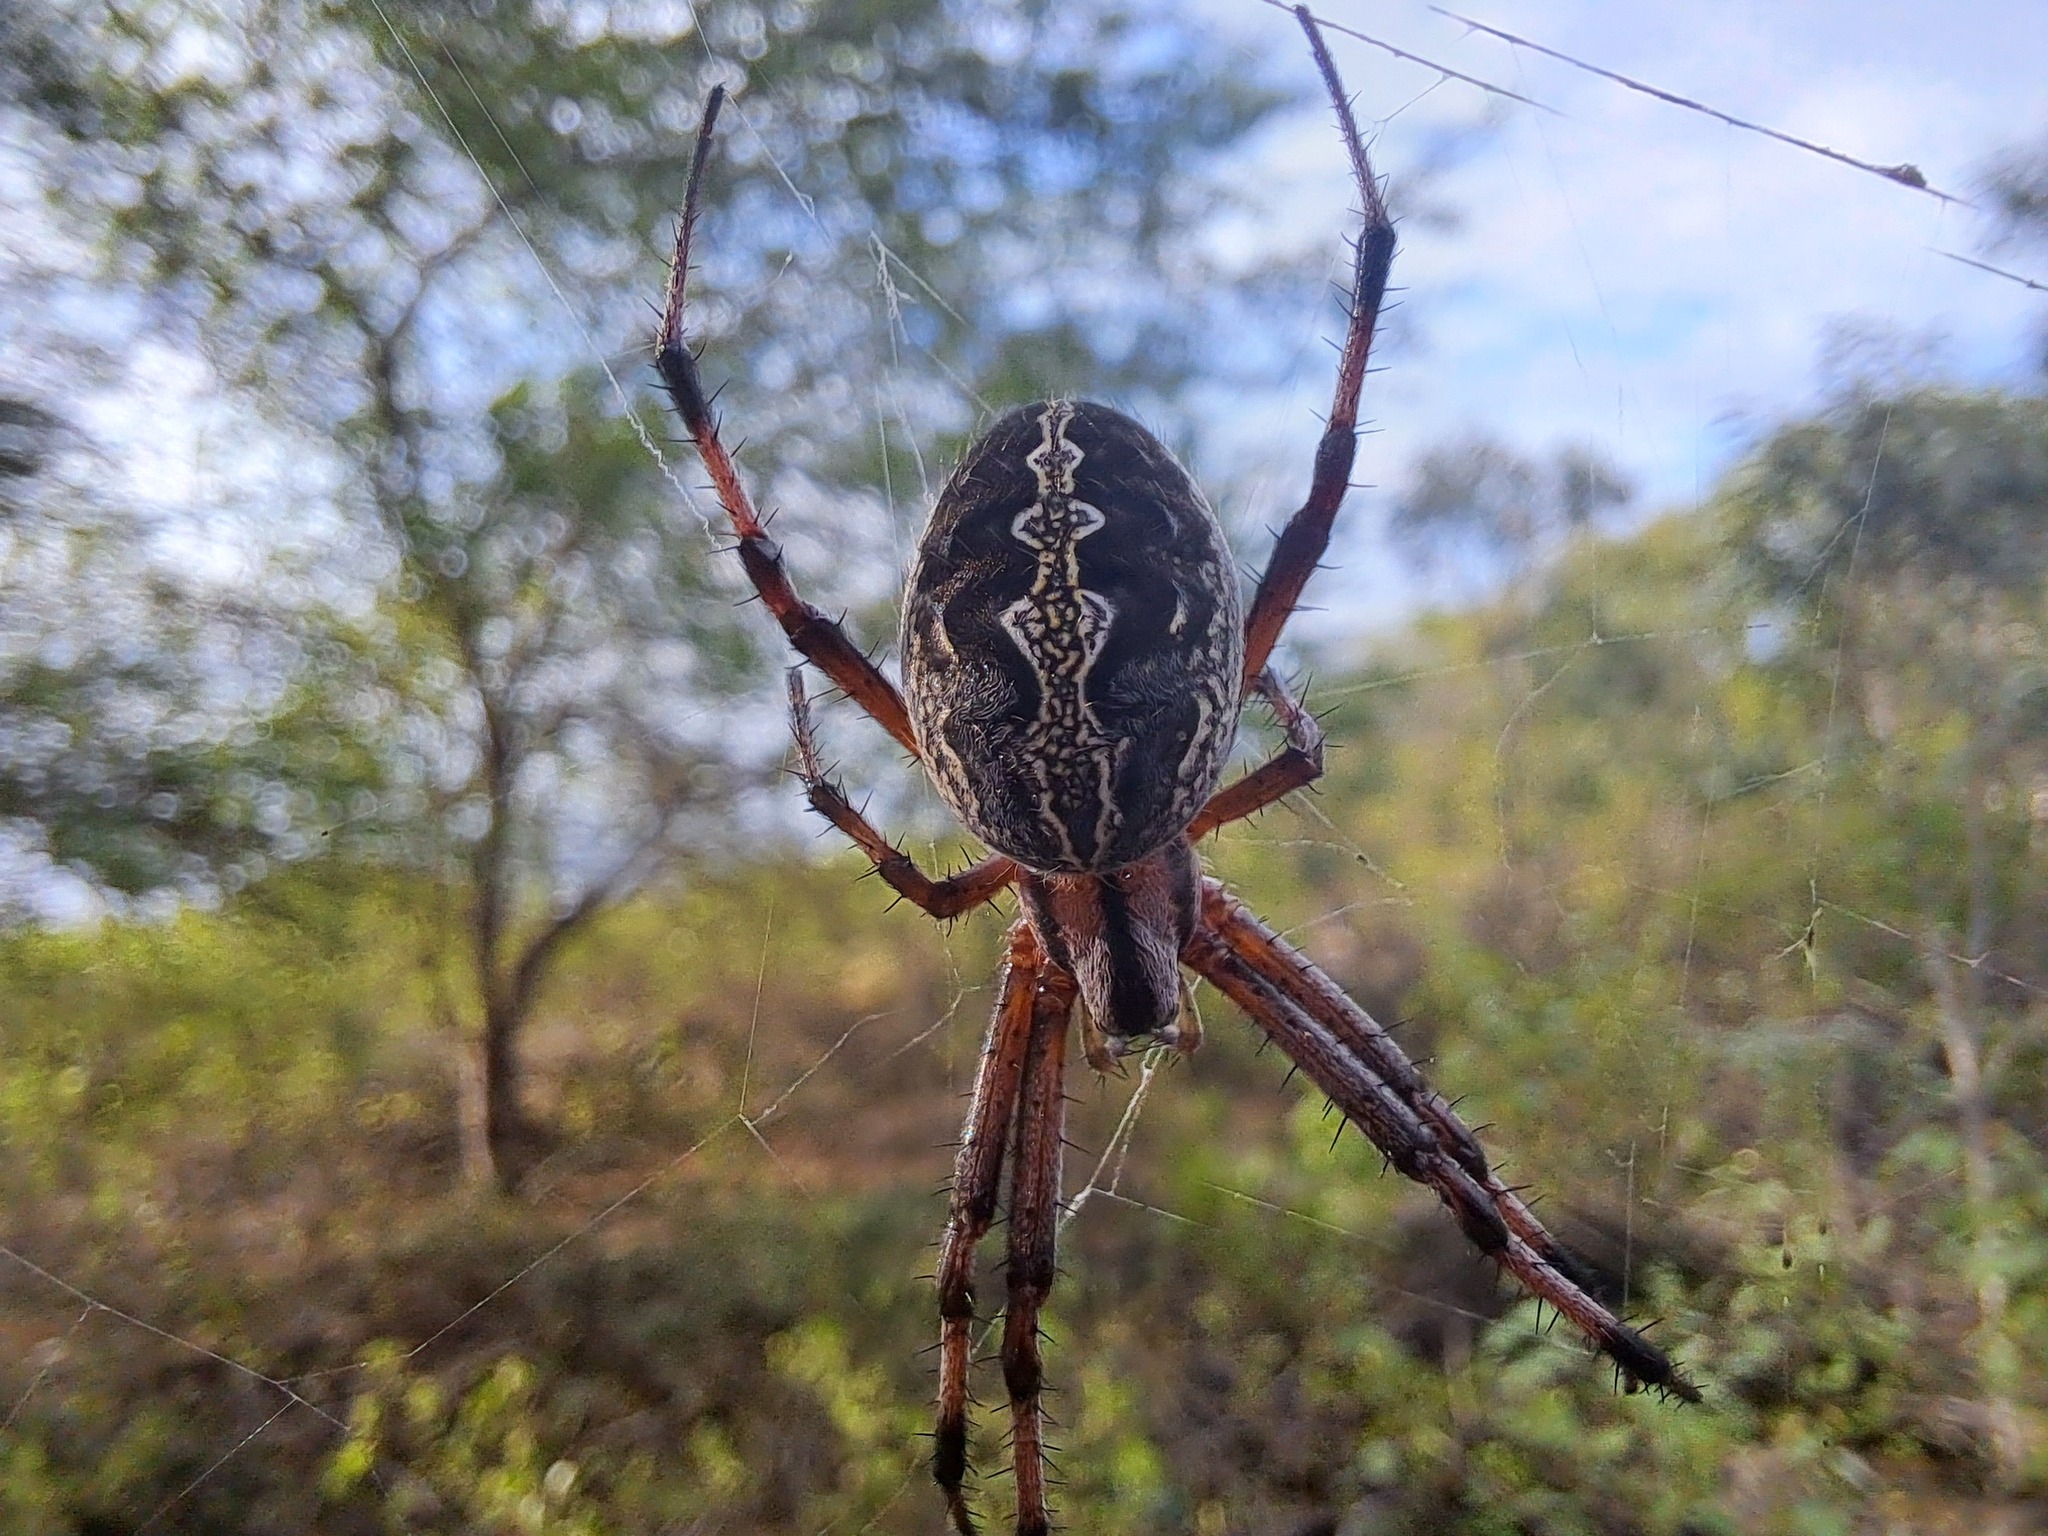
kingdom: Animalia
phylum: Arthropoda
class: Arachnida
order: Araneae
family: Araneidae
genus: Neoscona
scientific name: Neoscona oaxacensis
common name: Orb weavers
